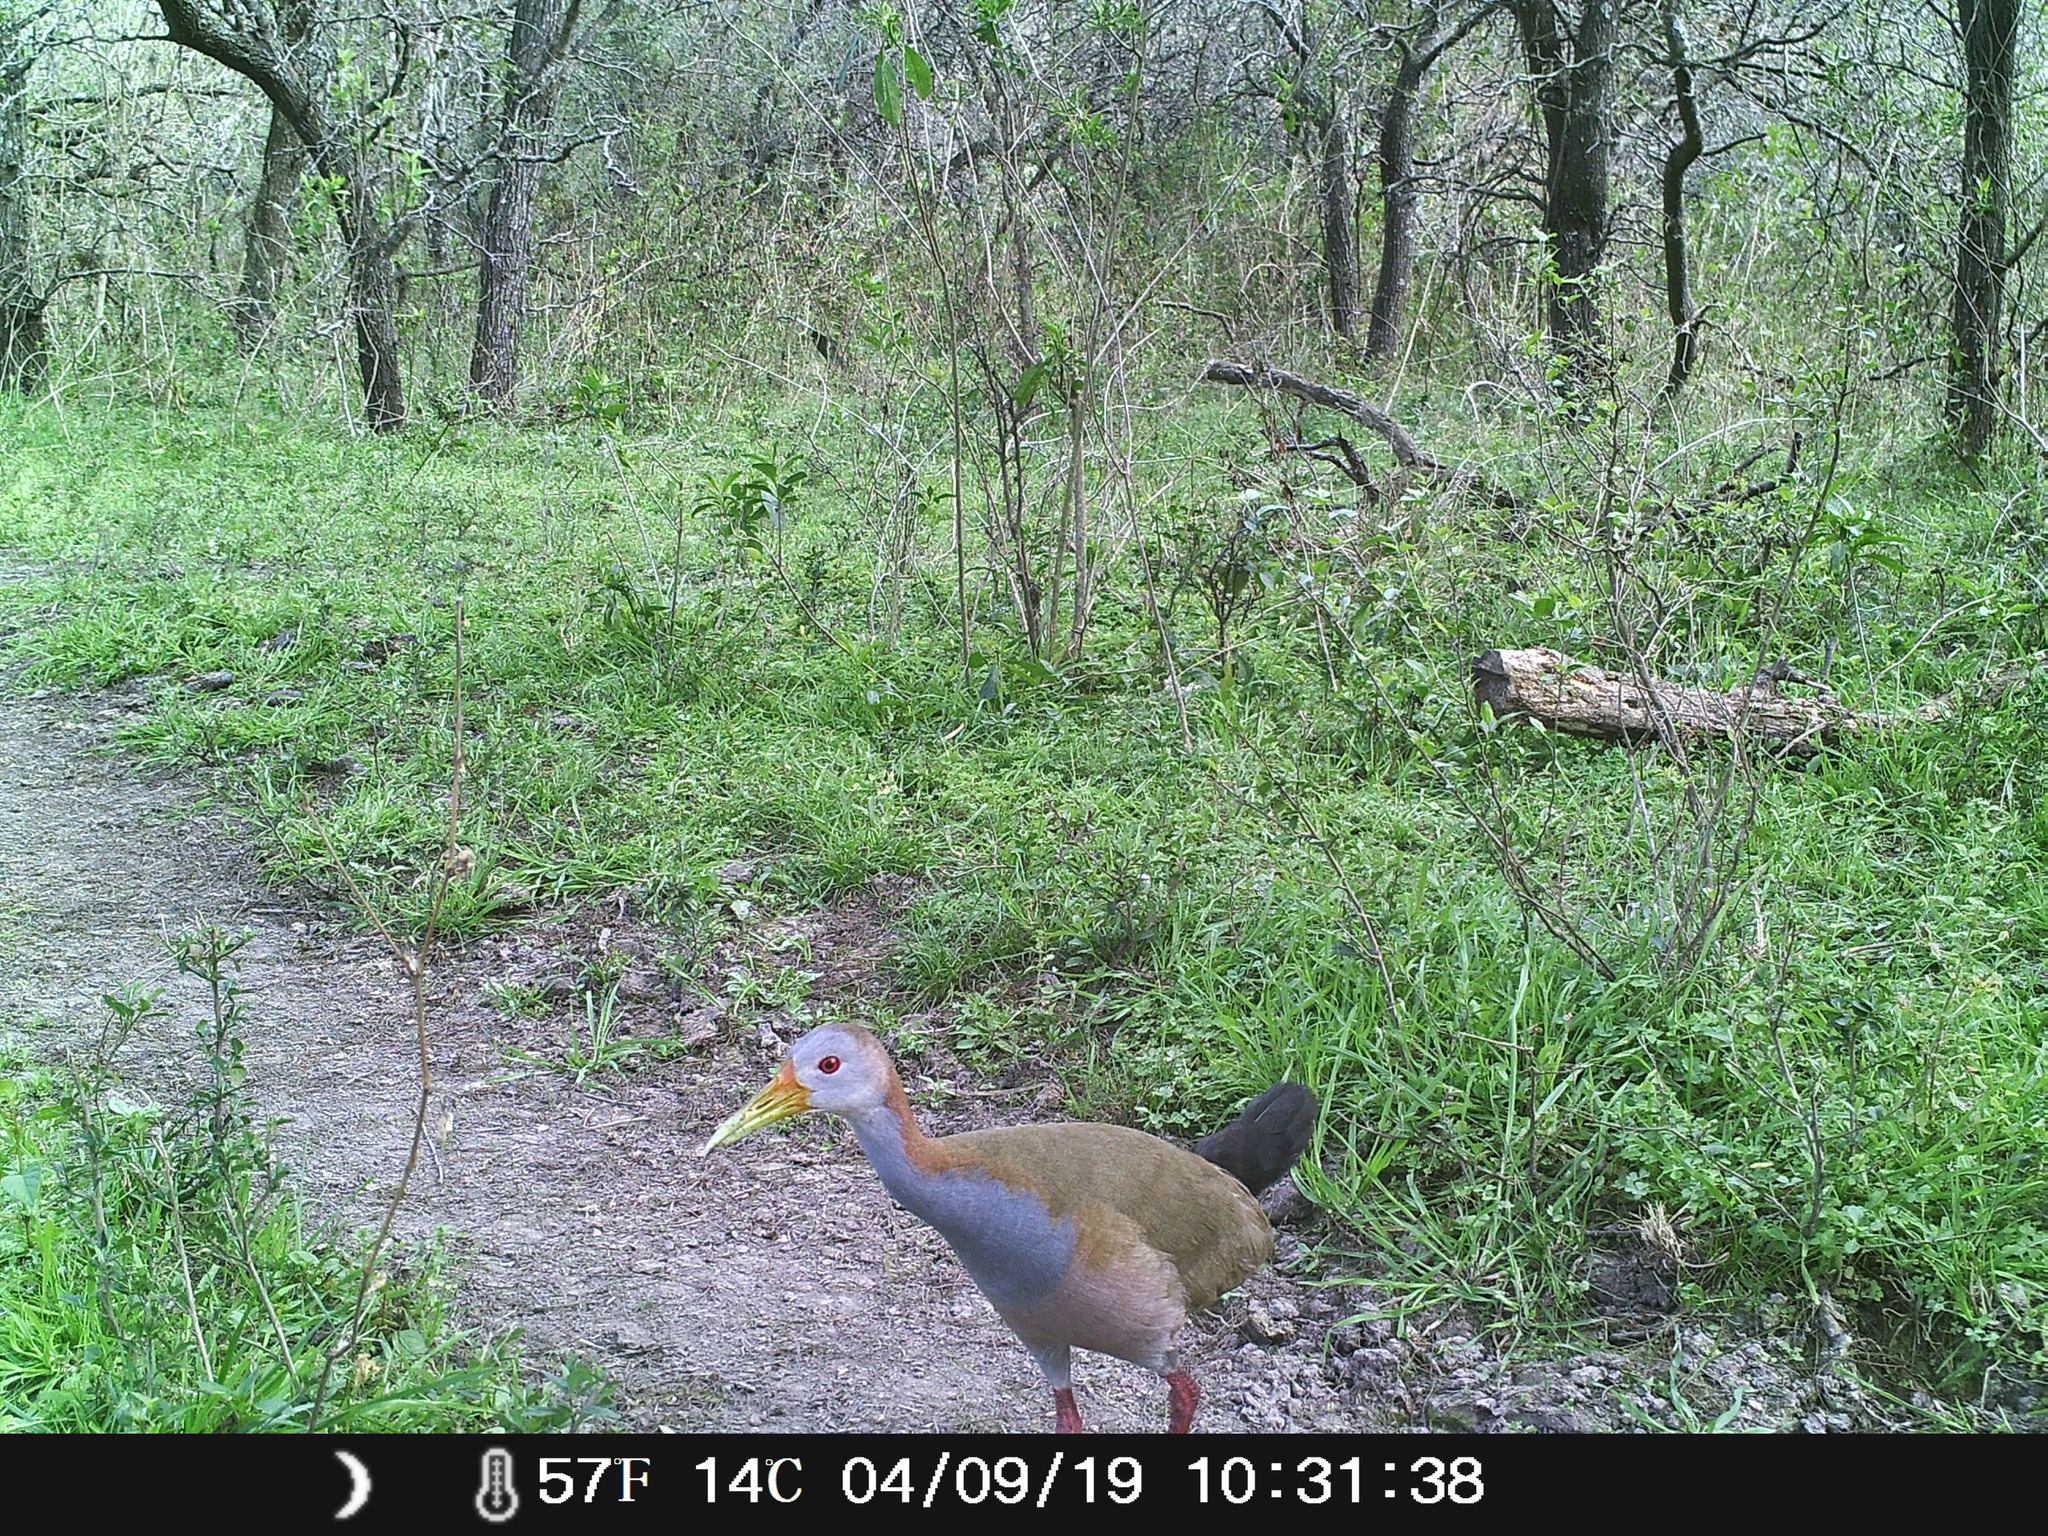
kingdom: Animalia
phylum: Chordata
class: Aves
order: Gruiformes
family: Rallidae
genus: Aramides
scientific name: Aramides ypecaha
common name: Giant wood rail
